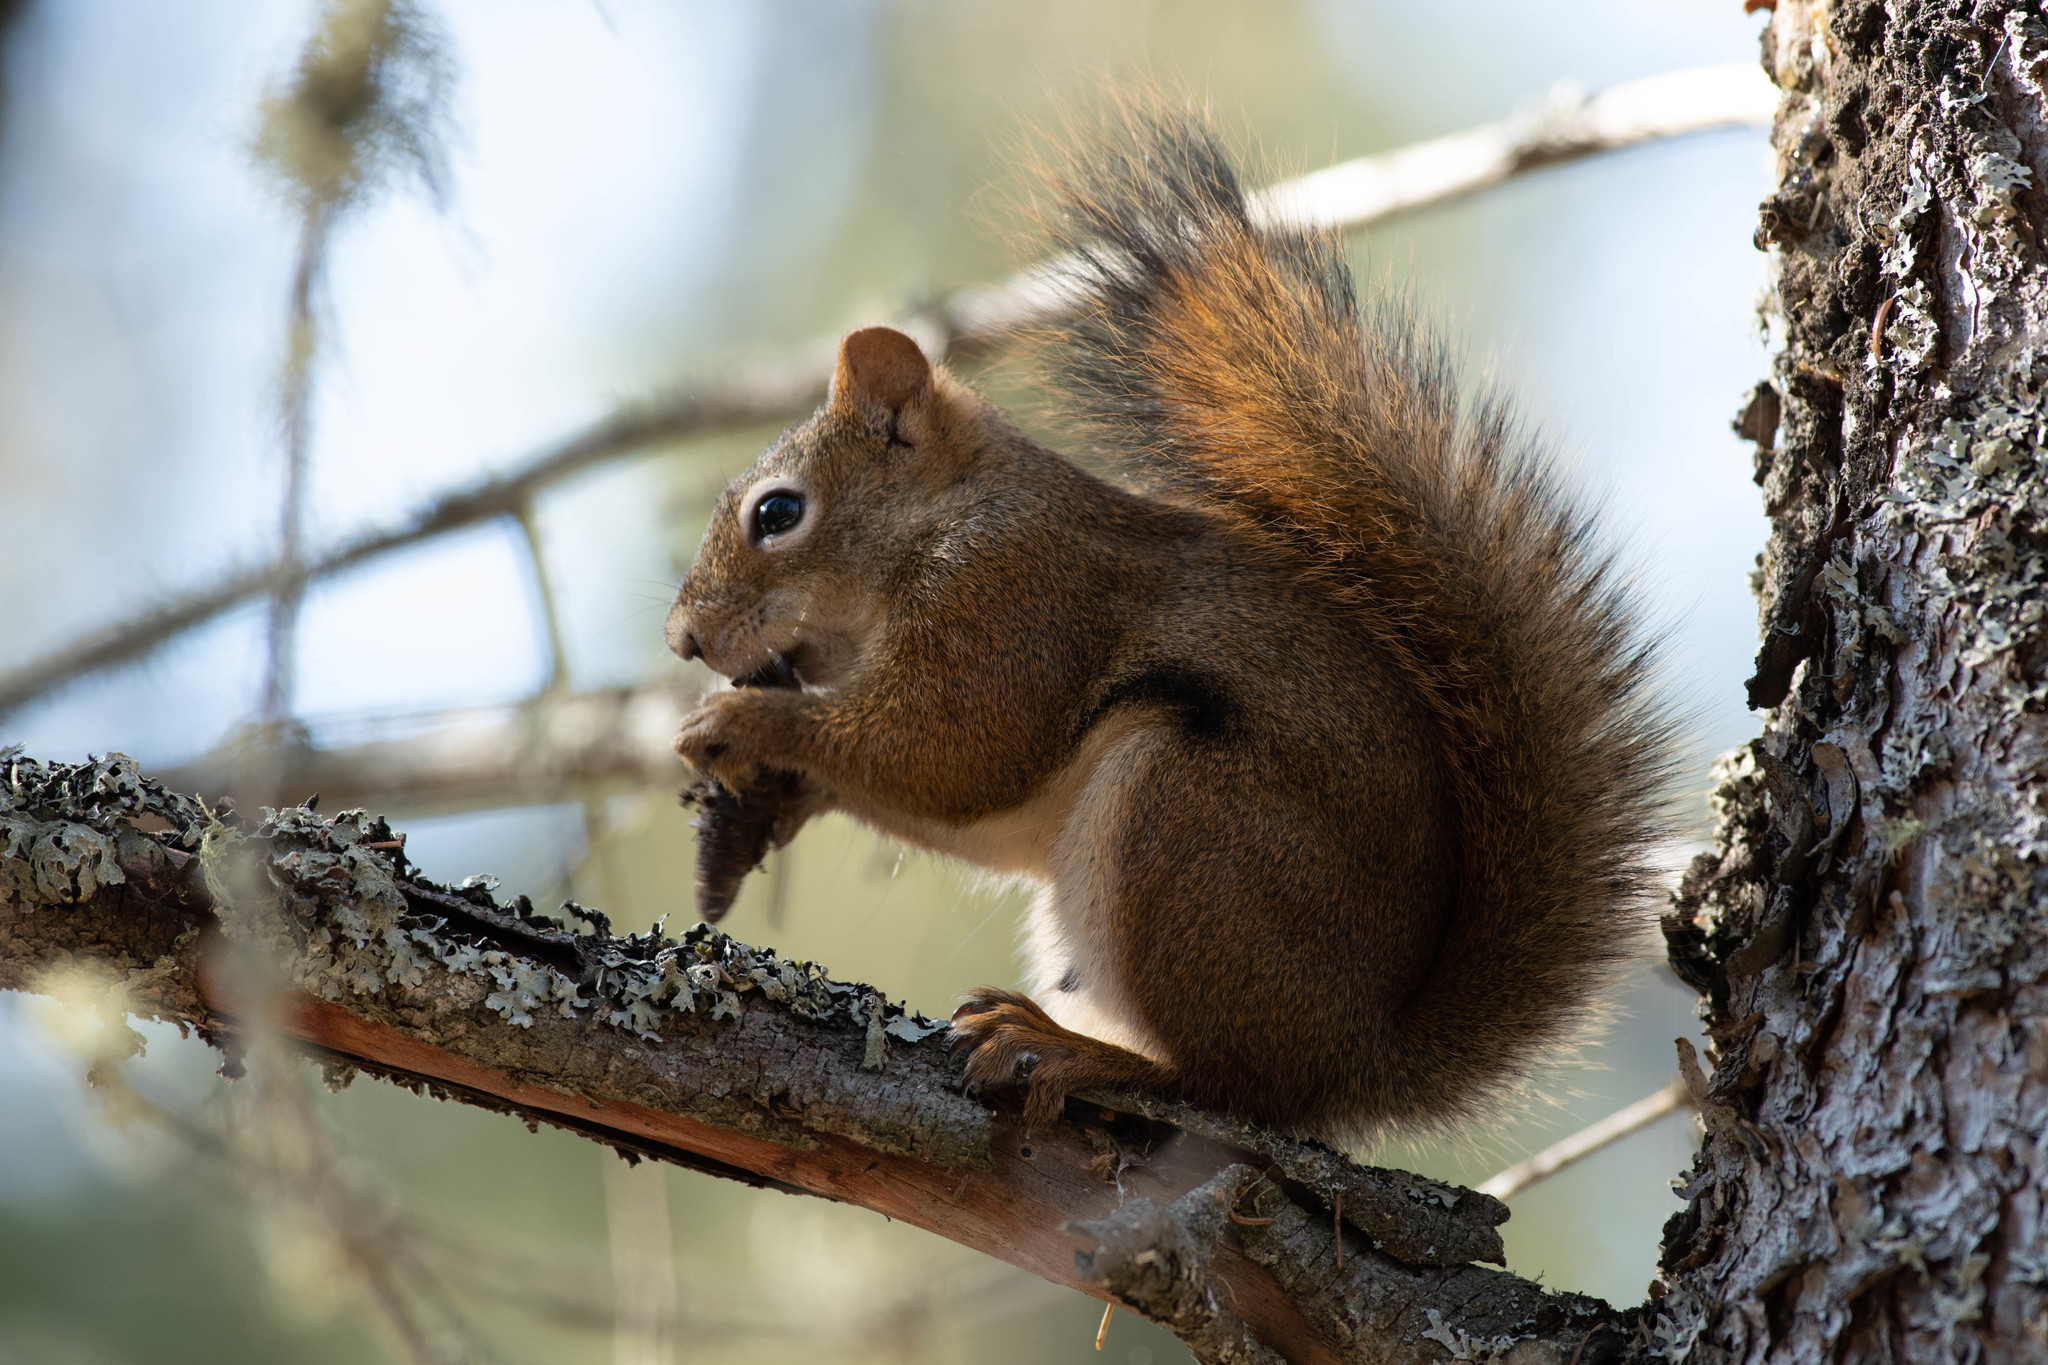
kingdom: Animalia
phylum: Chordata
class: Mammalia
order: Rodentia
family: Sciuridae
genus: Tamiasciurus
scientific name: Tamiasciurus hudsonicus
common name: Red squirrel
